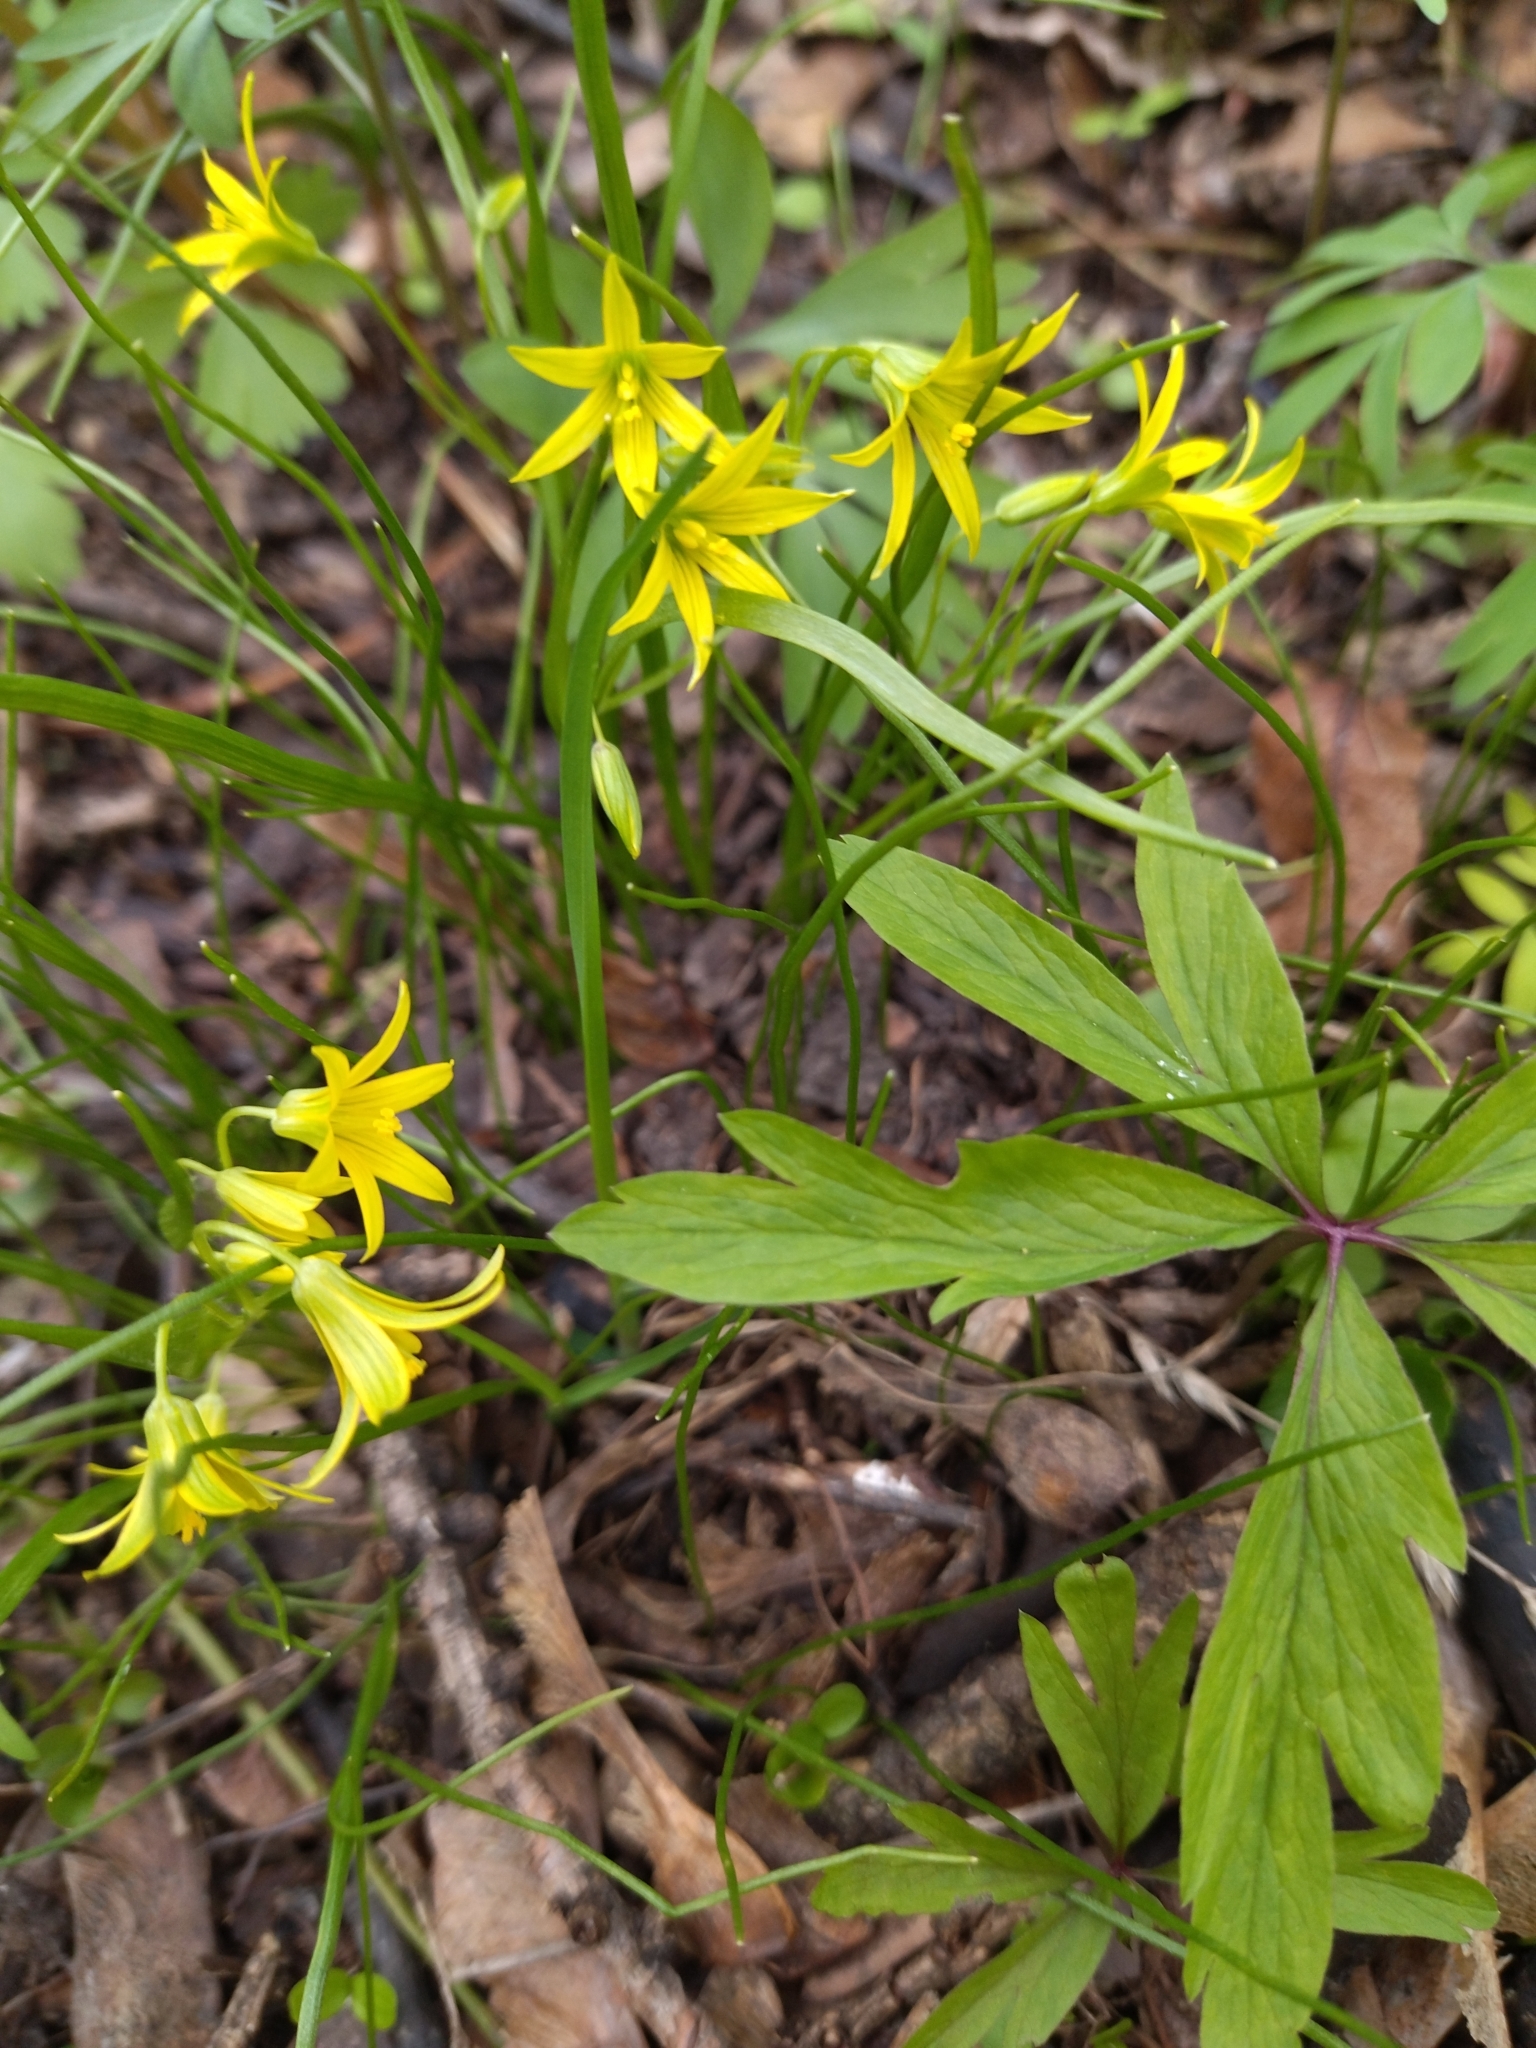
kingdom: Plantae
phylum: Tracheophyta
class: Liliopsida
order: Liliales
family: Liliaceae
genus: Gagea
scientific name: Gagea minima
